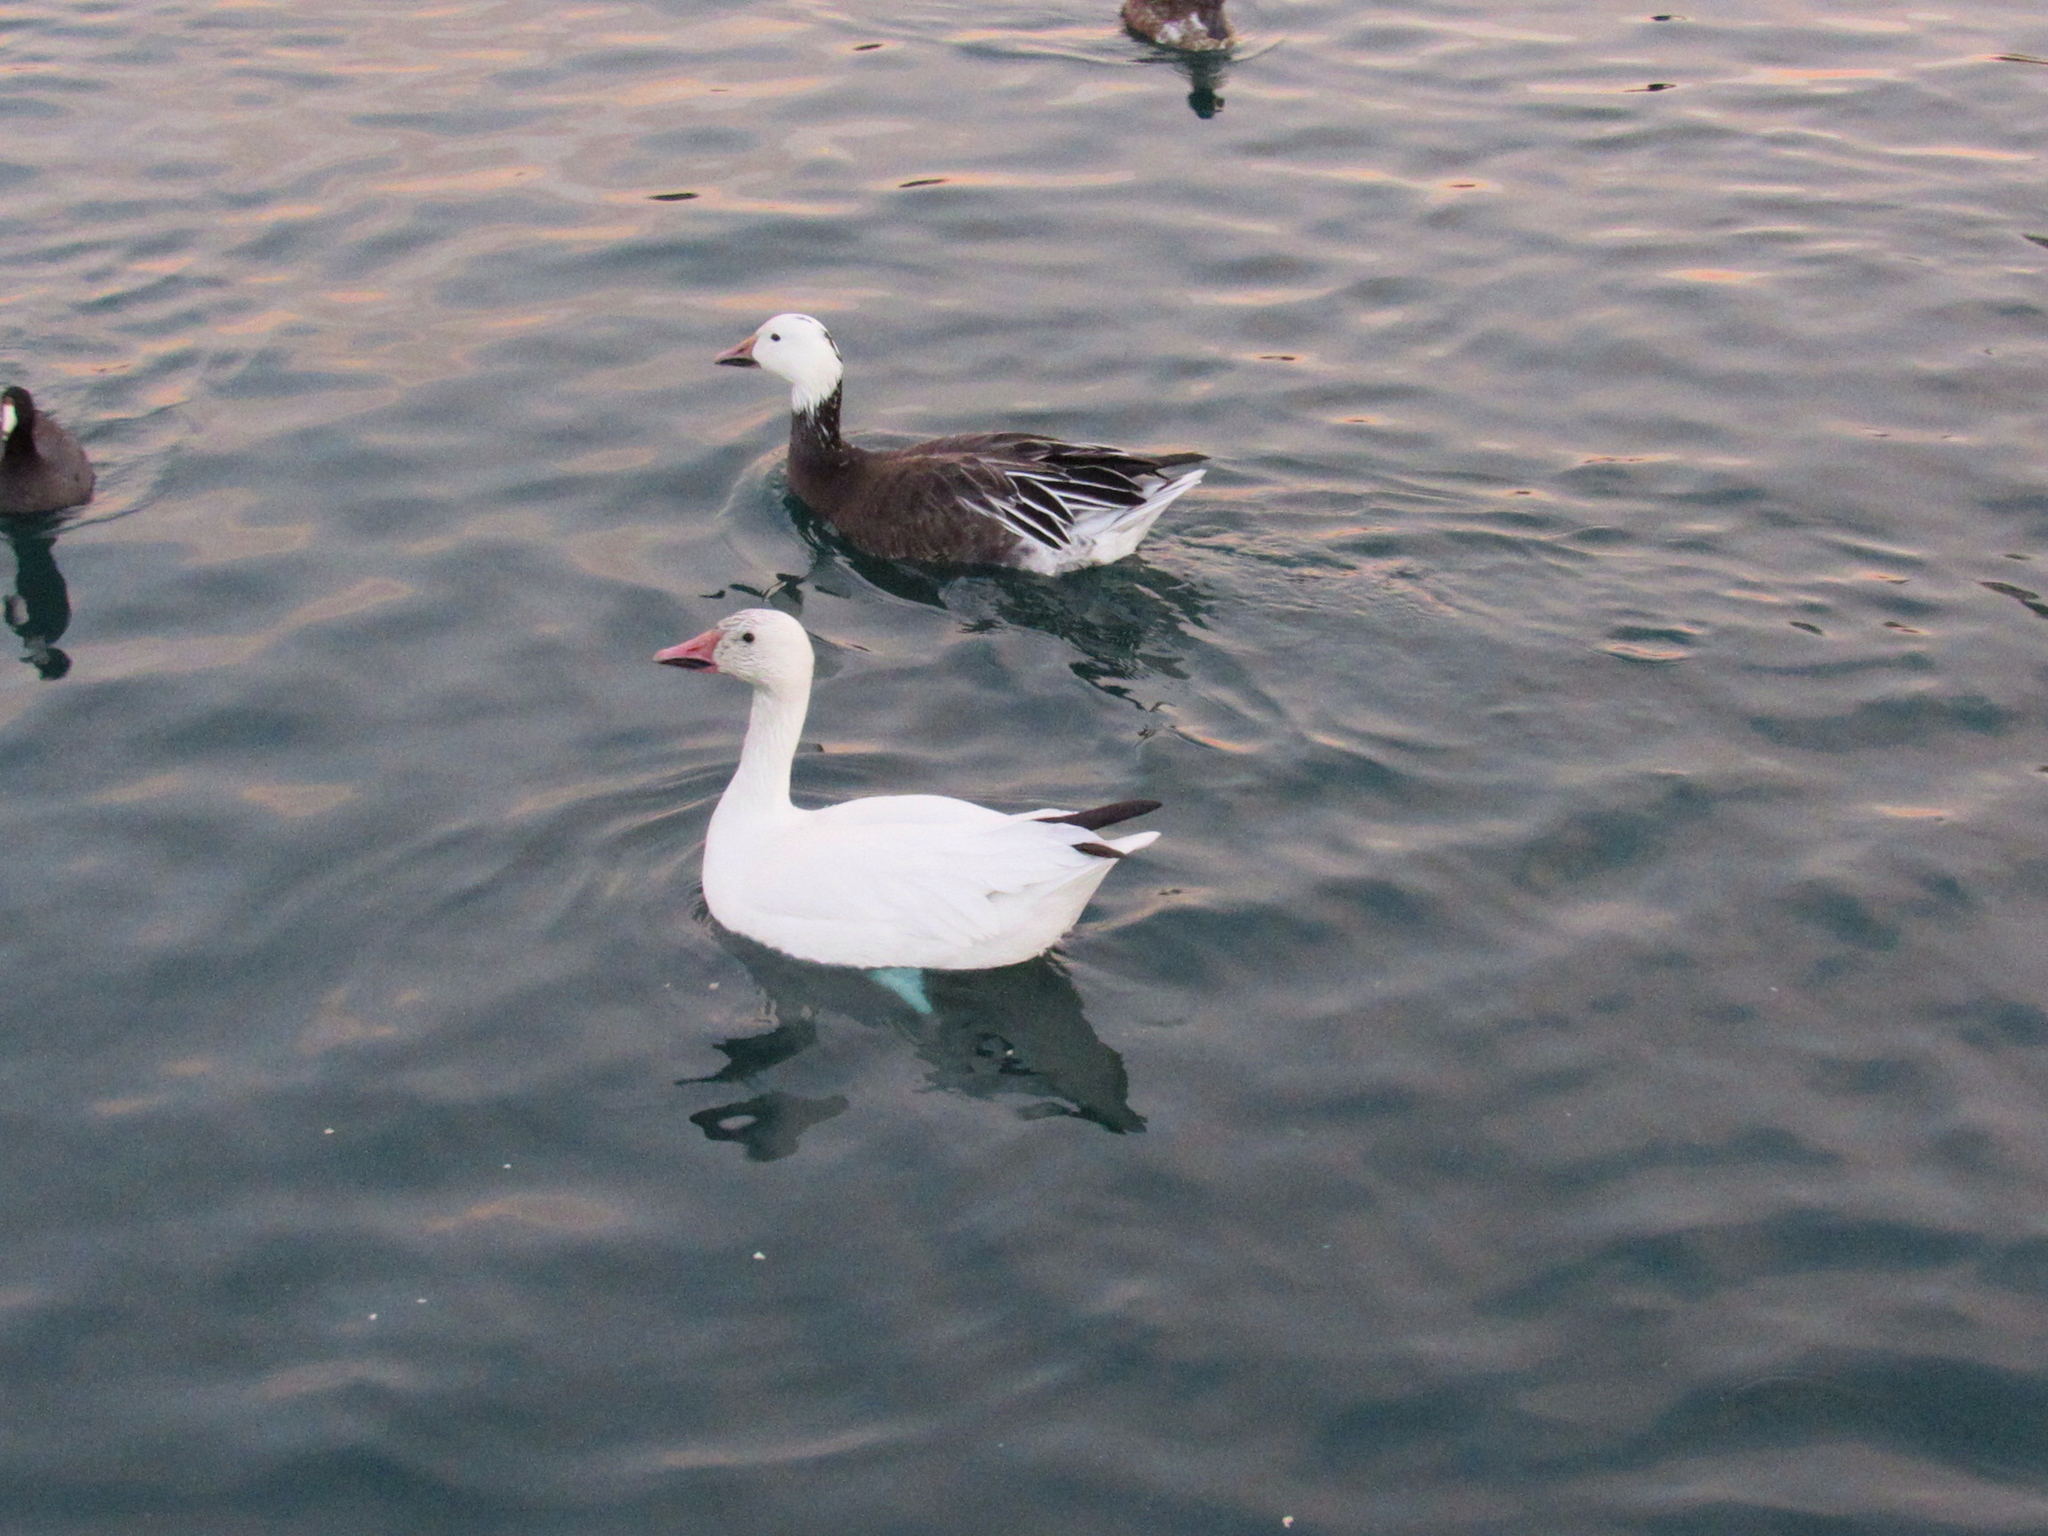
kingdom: Animalia
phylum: Chordata
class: Aves
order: Anseriformes
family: Anatidae
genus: Anser
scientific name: Anser caerulescens
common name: Snow goose
